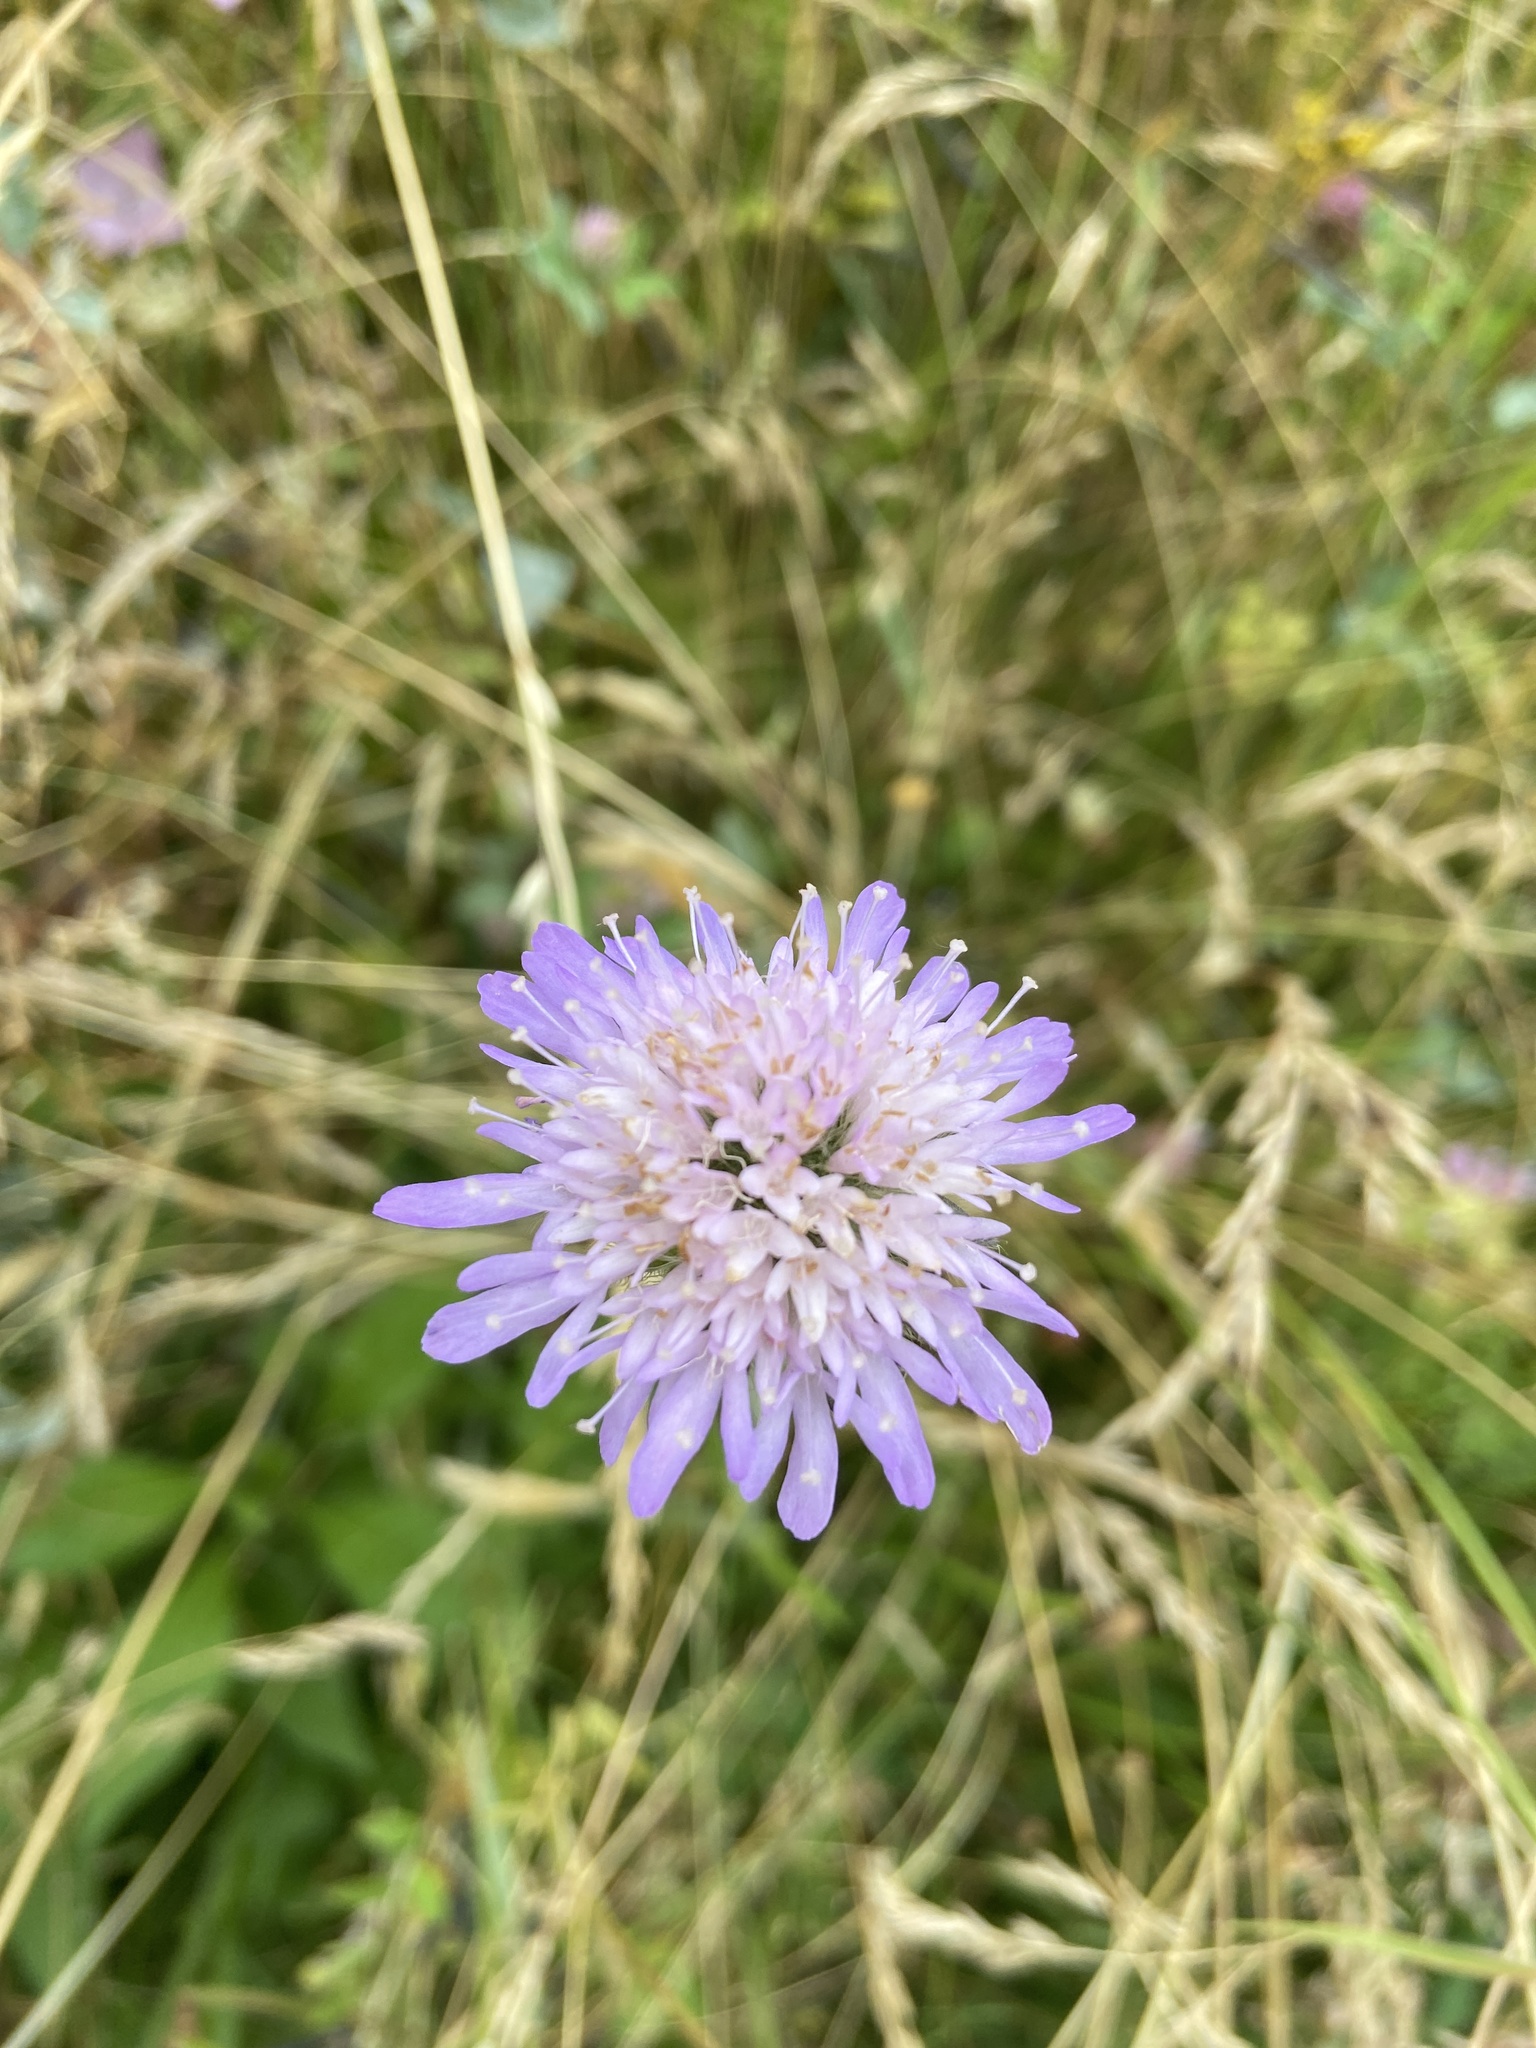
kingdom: Plantae
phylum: Tracheophyta
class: Magnoliopsida
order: Dipsacales
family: Caprifoliaceae
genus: Knautia
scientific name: Knautia arvensis
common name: Field scabiosa
